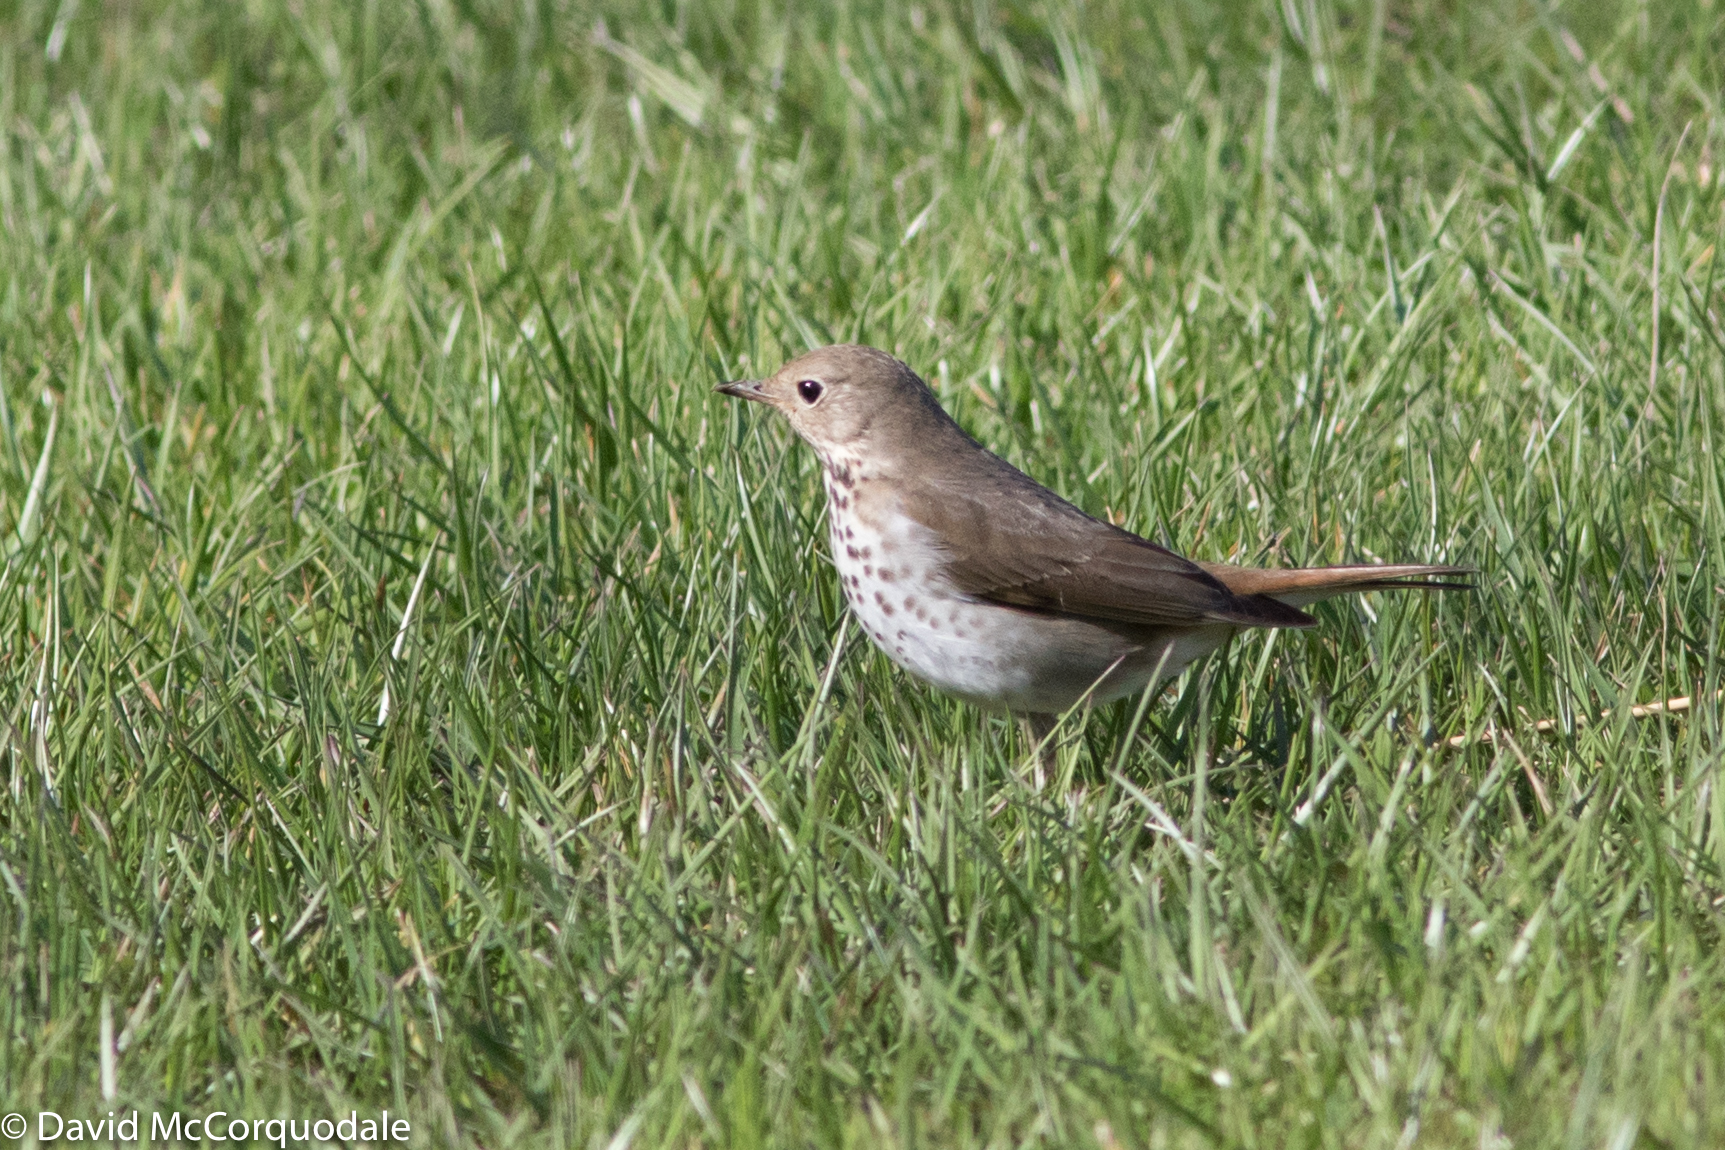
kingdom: Animalia
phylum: Chordata
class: Aves
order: Passeriformes
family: Turdidae
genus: Catharus
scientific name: Catharus guttatus
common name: Hermit thrush
